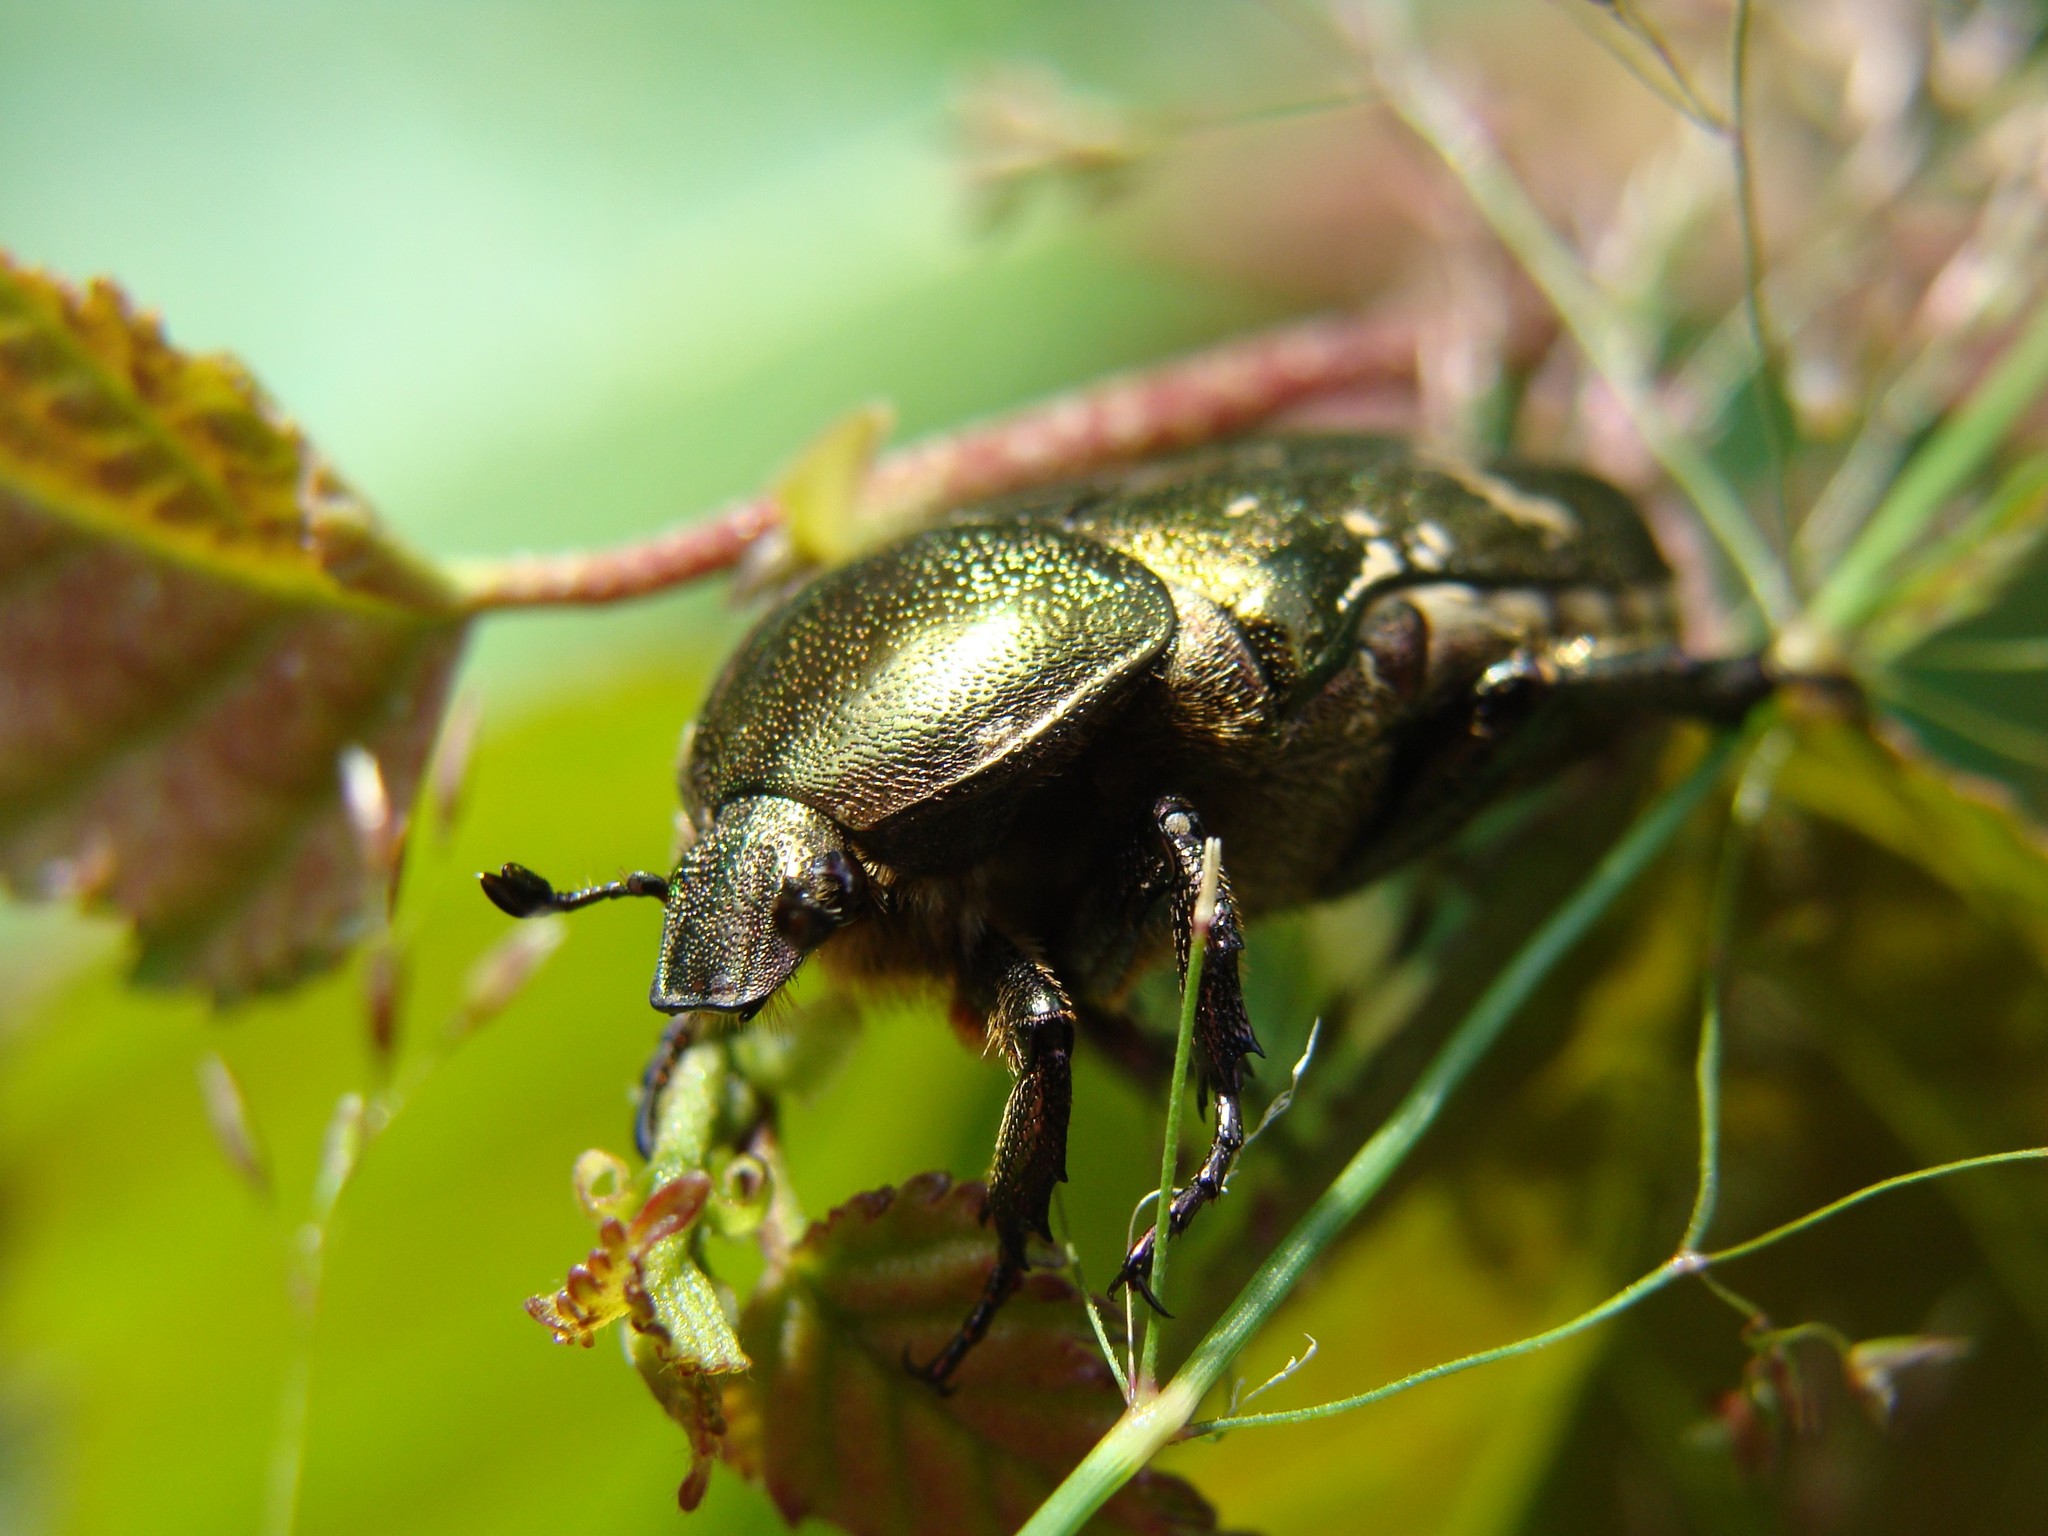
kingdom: Animalia
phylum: Arthropoda
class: Insecta
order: Coleoptera
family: Scarabaeidae
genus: Protaetia
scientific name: Protaetia cuprea
